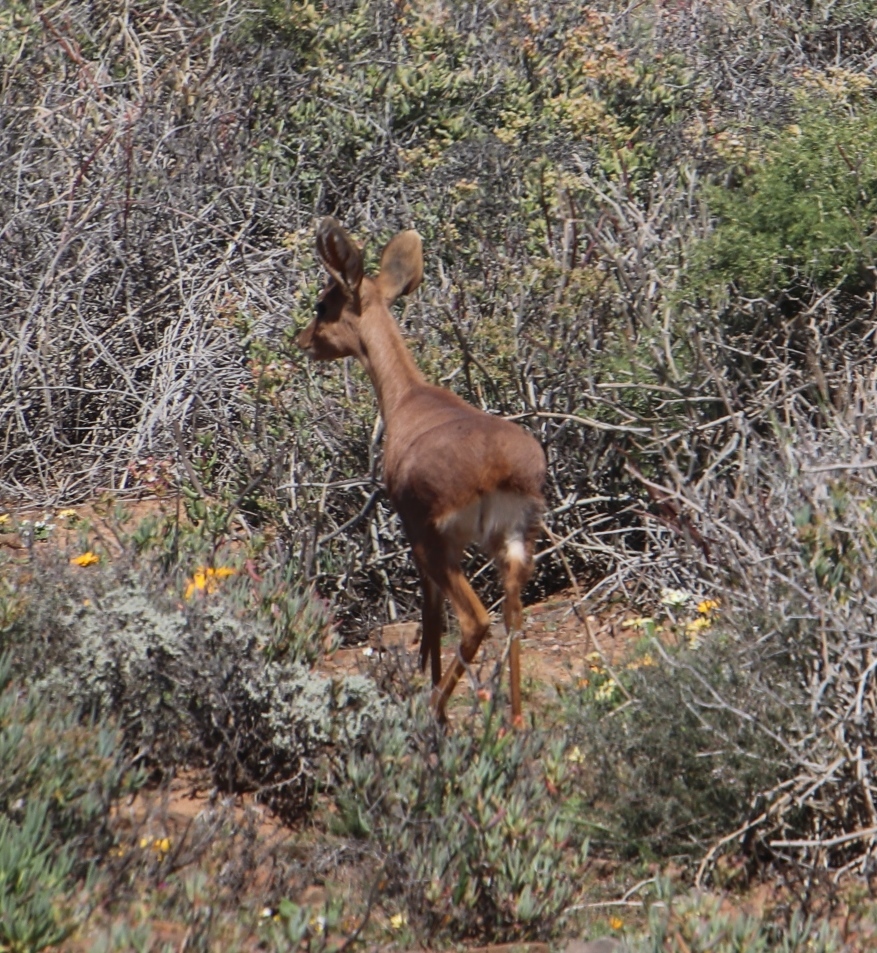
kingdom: Animalia
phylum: Chordata
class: Mammalia
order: Artiodactyla
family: Bovidae
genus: Raphicerus
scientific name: Raphicerus campestris
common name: Steenbok
